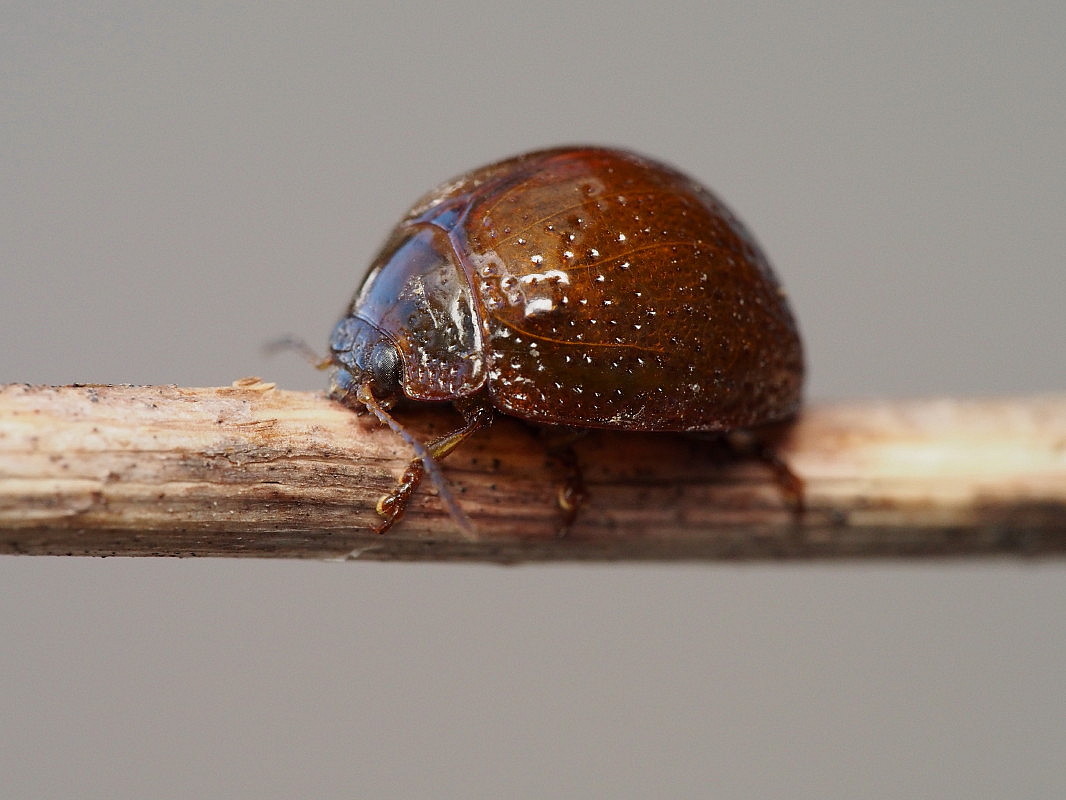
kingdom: Animalia
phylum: Arthropoda
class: Insecta
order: Coleoptera
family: Chrysomelidae
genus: Dicranosterna
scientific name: Dicranosterna
